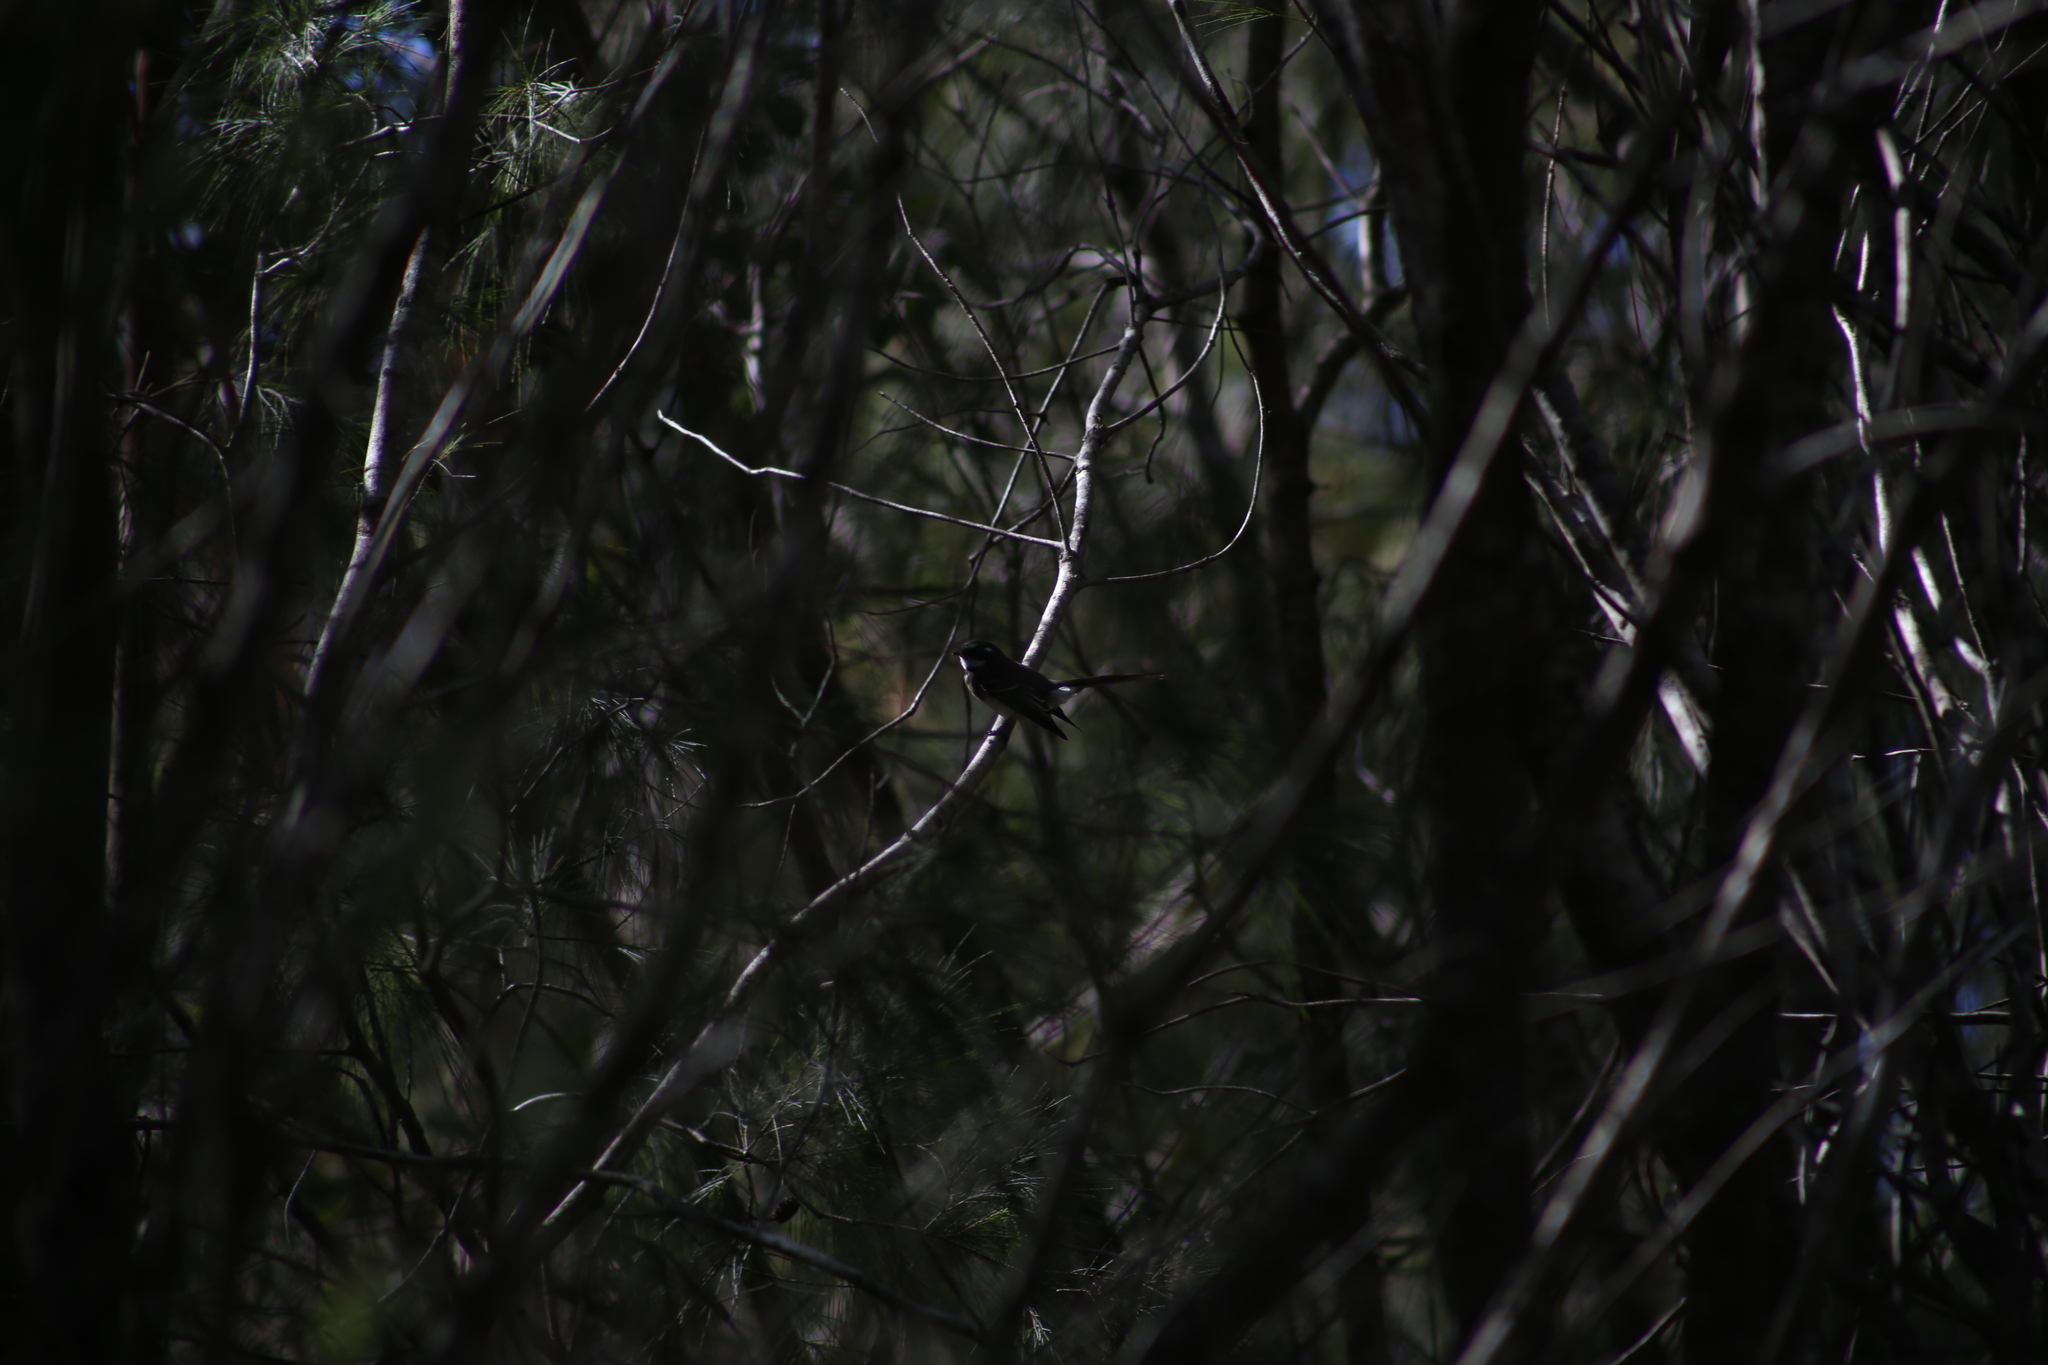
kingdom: Animalia
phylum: Chordata
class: Aves
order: Passeriformes
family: Rhipiduridae
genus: Rhipidura
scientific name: Rhipidura albiscapa
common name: Grey fantail
